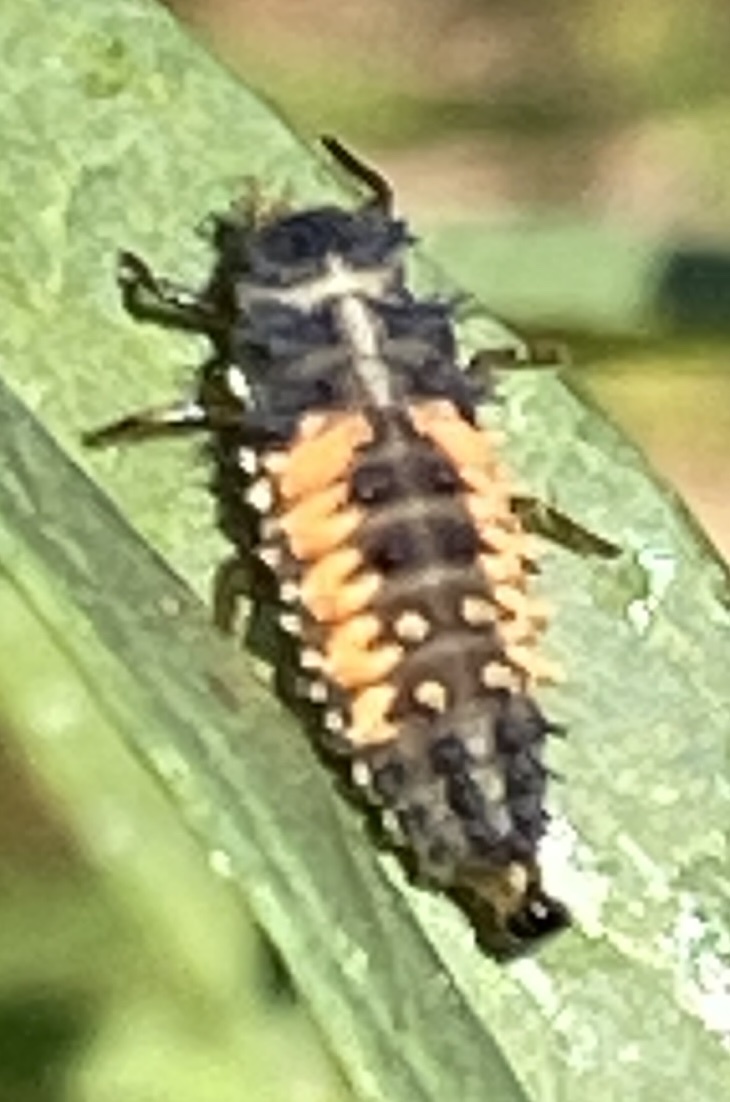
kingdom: Animalia
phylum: Arthropoda
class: Insecta
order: Coleoptera
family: Coccinellidae
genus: Harmonia
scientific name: Harmonia axyridis
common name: Harlequin ladybird
